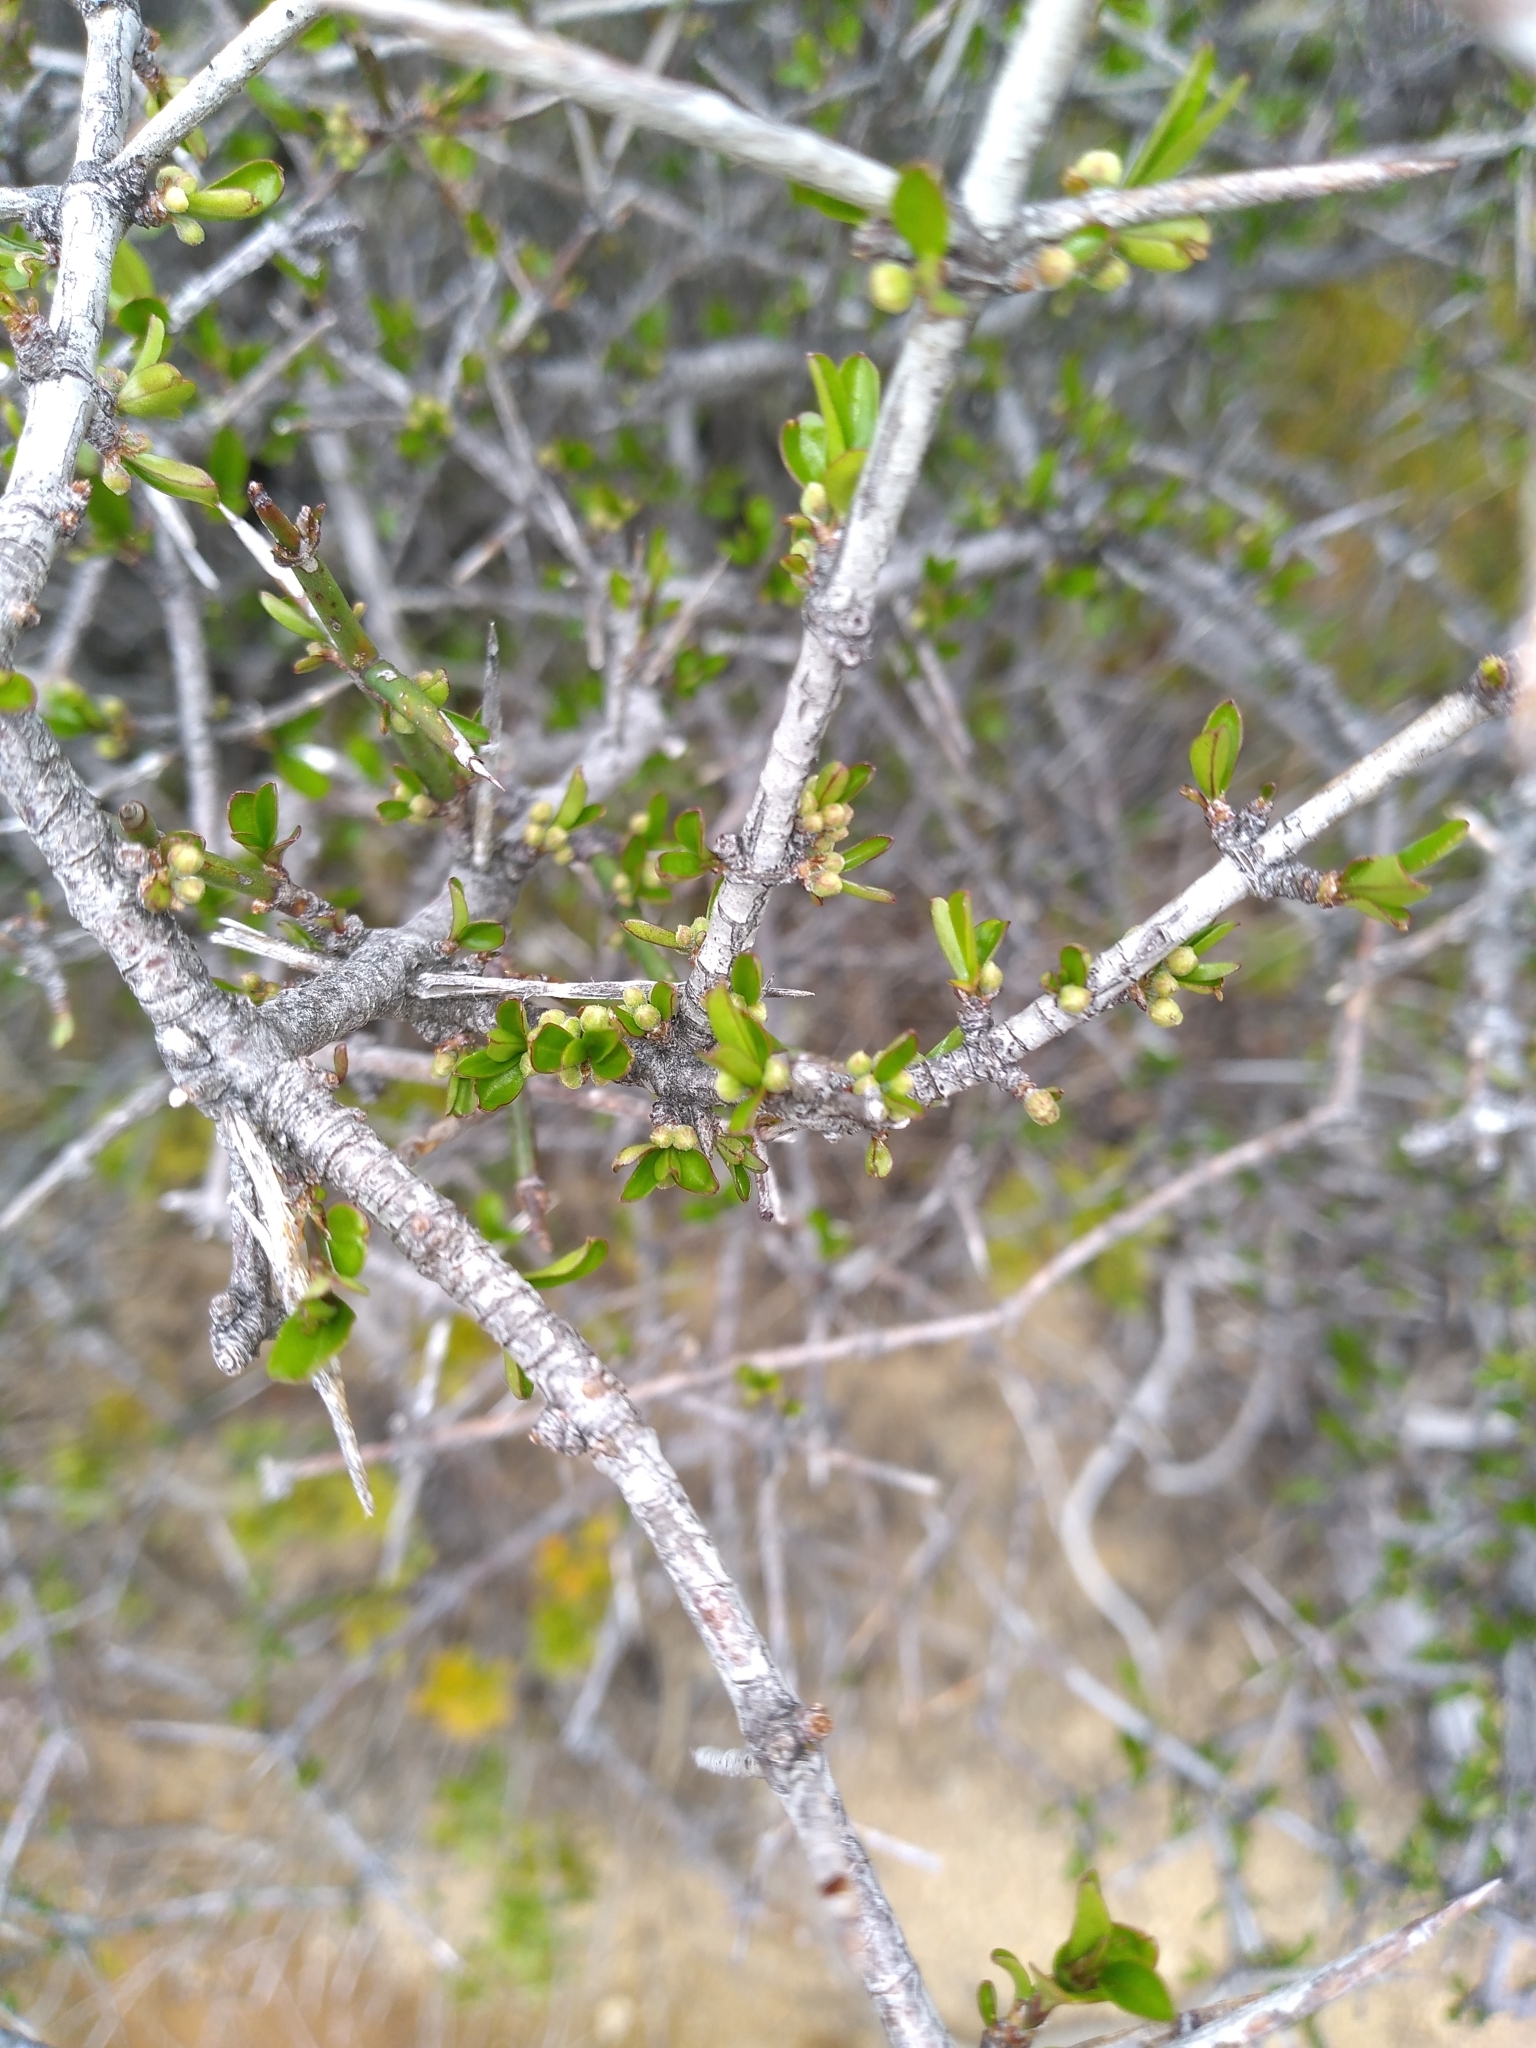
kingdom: Plantae
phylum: Tracheophyta
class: Magnoliopsida
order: Rosales
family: Rhamnaceae
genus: Discaria
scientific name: Discaria toumatou
